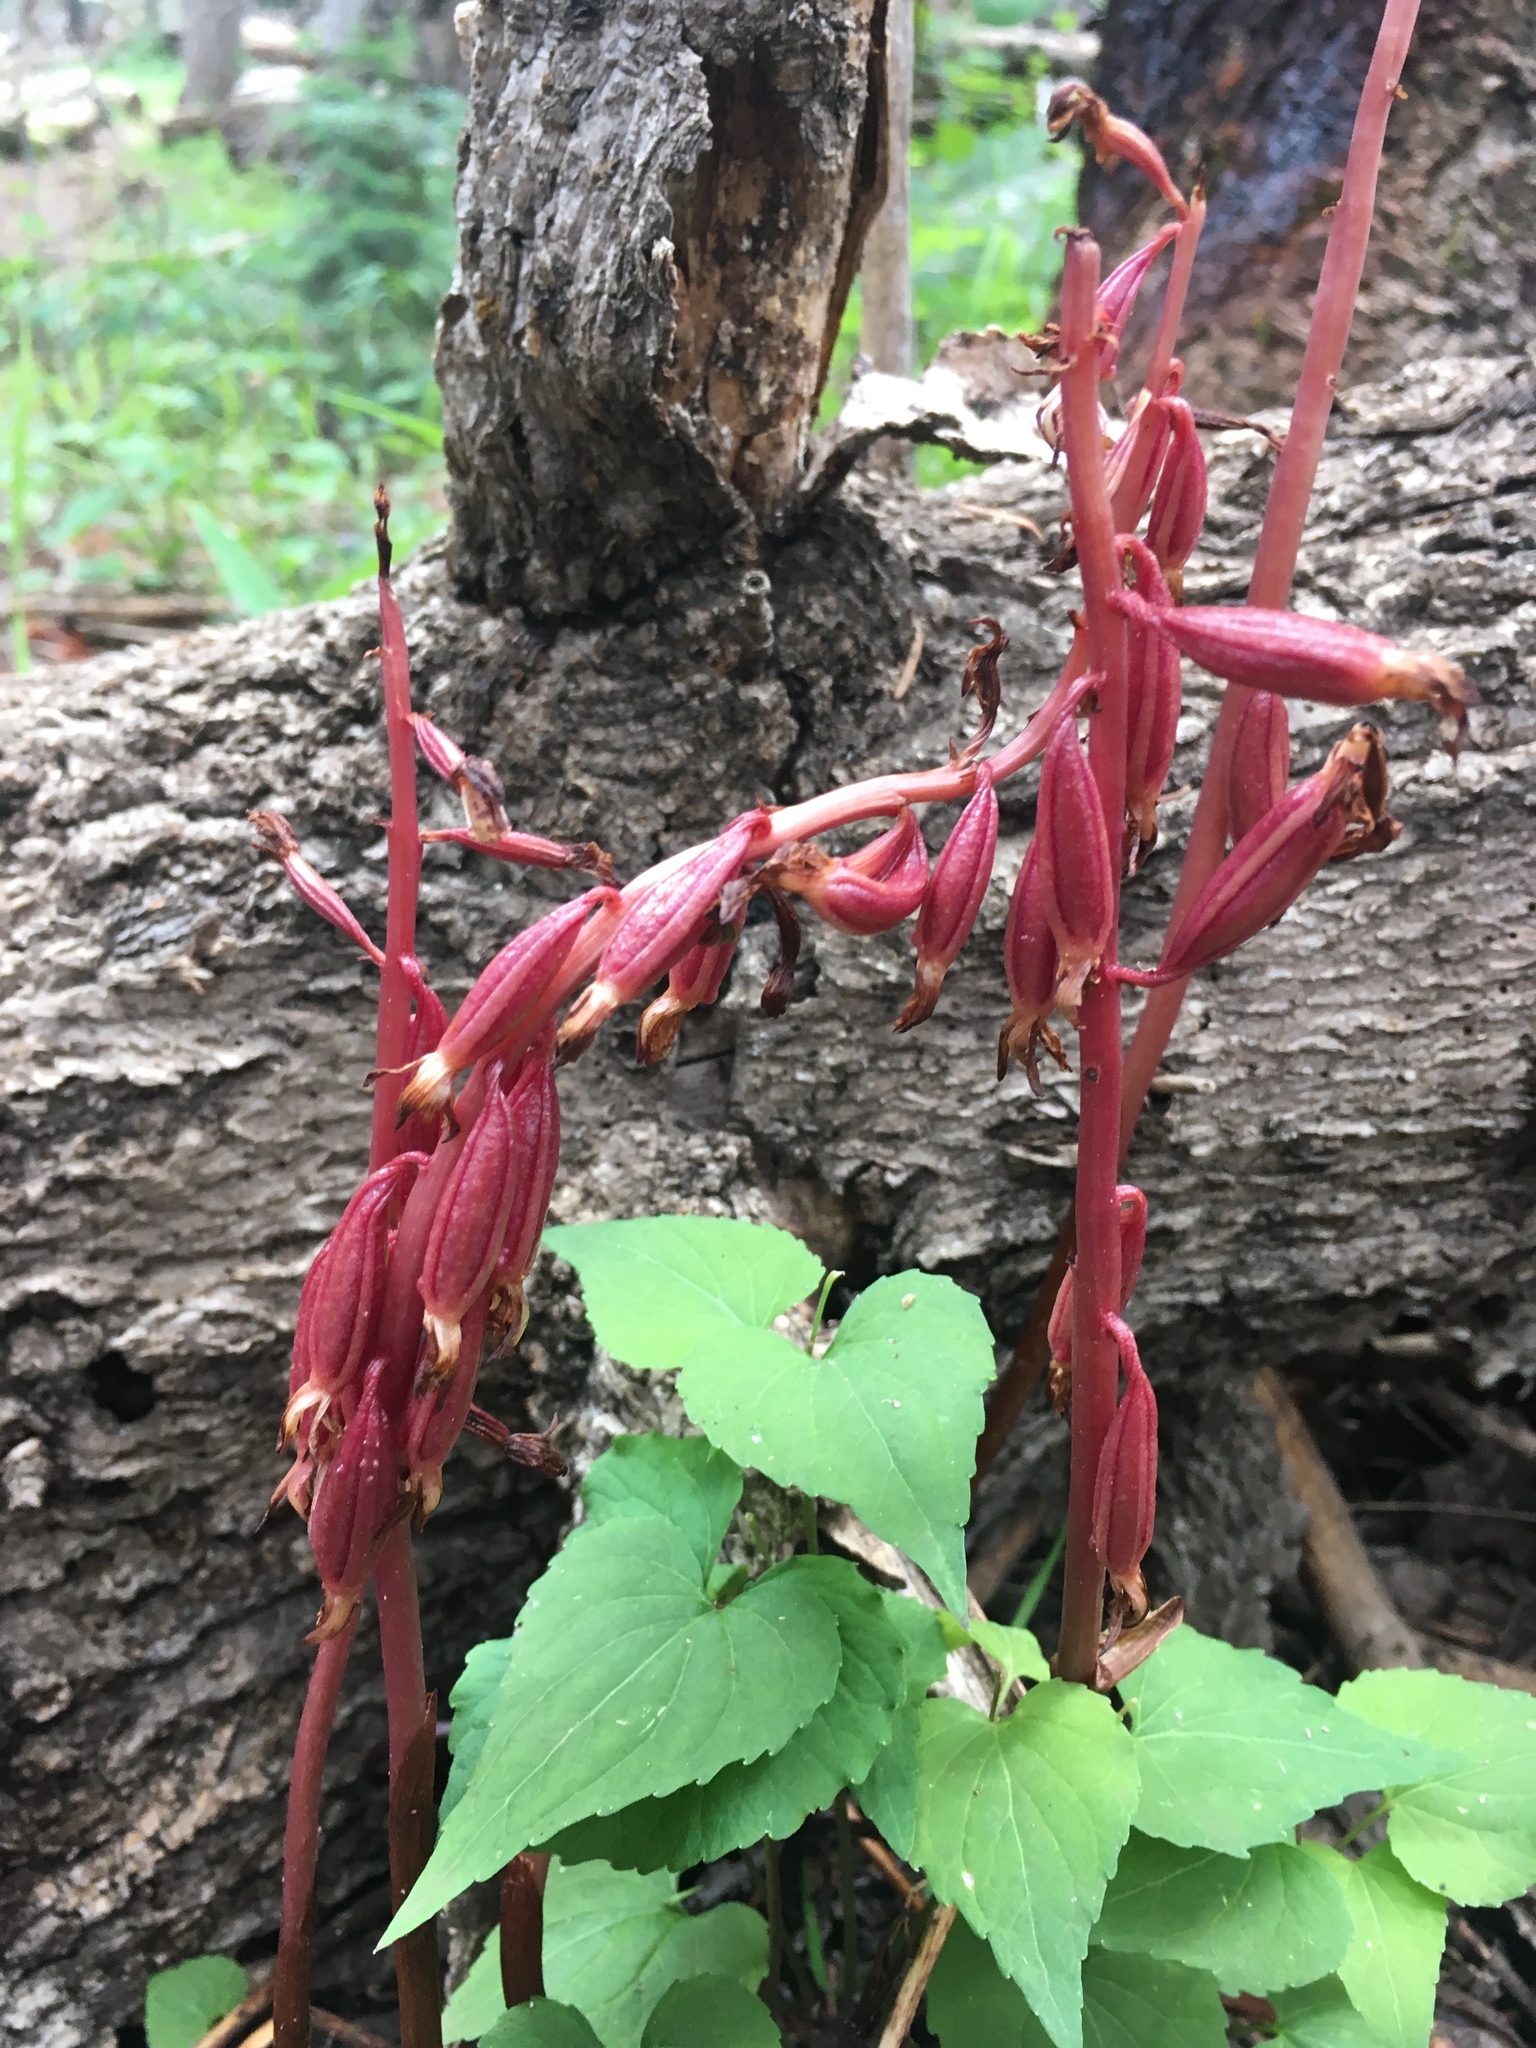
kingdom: Plantae
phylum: Tracheophyta
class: Liliopsida
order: Asparagales
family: Orchidaceae
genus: Corallorhiza
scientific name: Corallorhiza maculata
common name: Spotted coralroot
